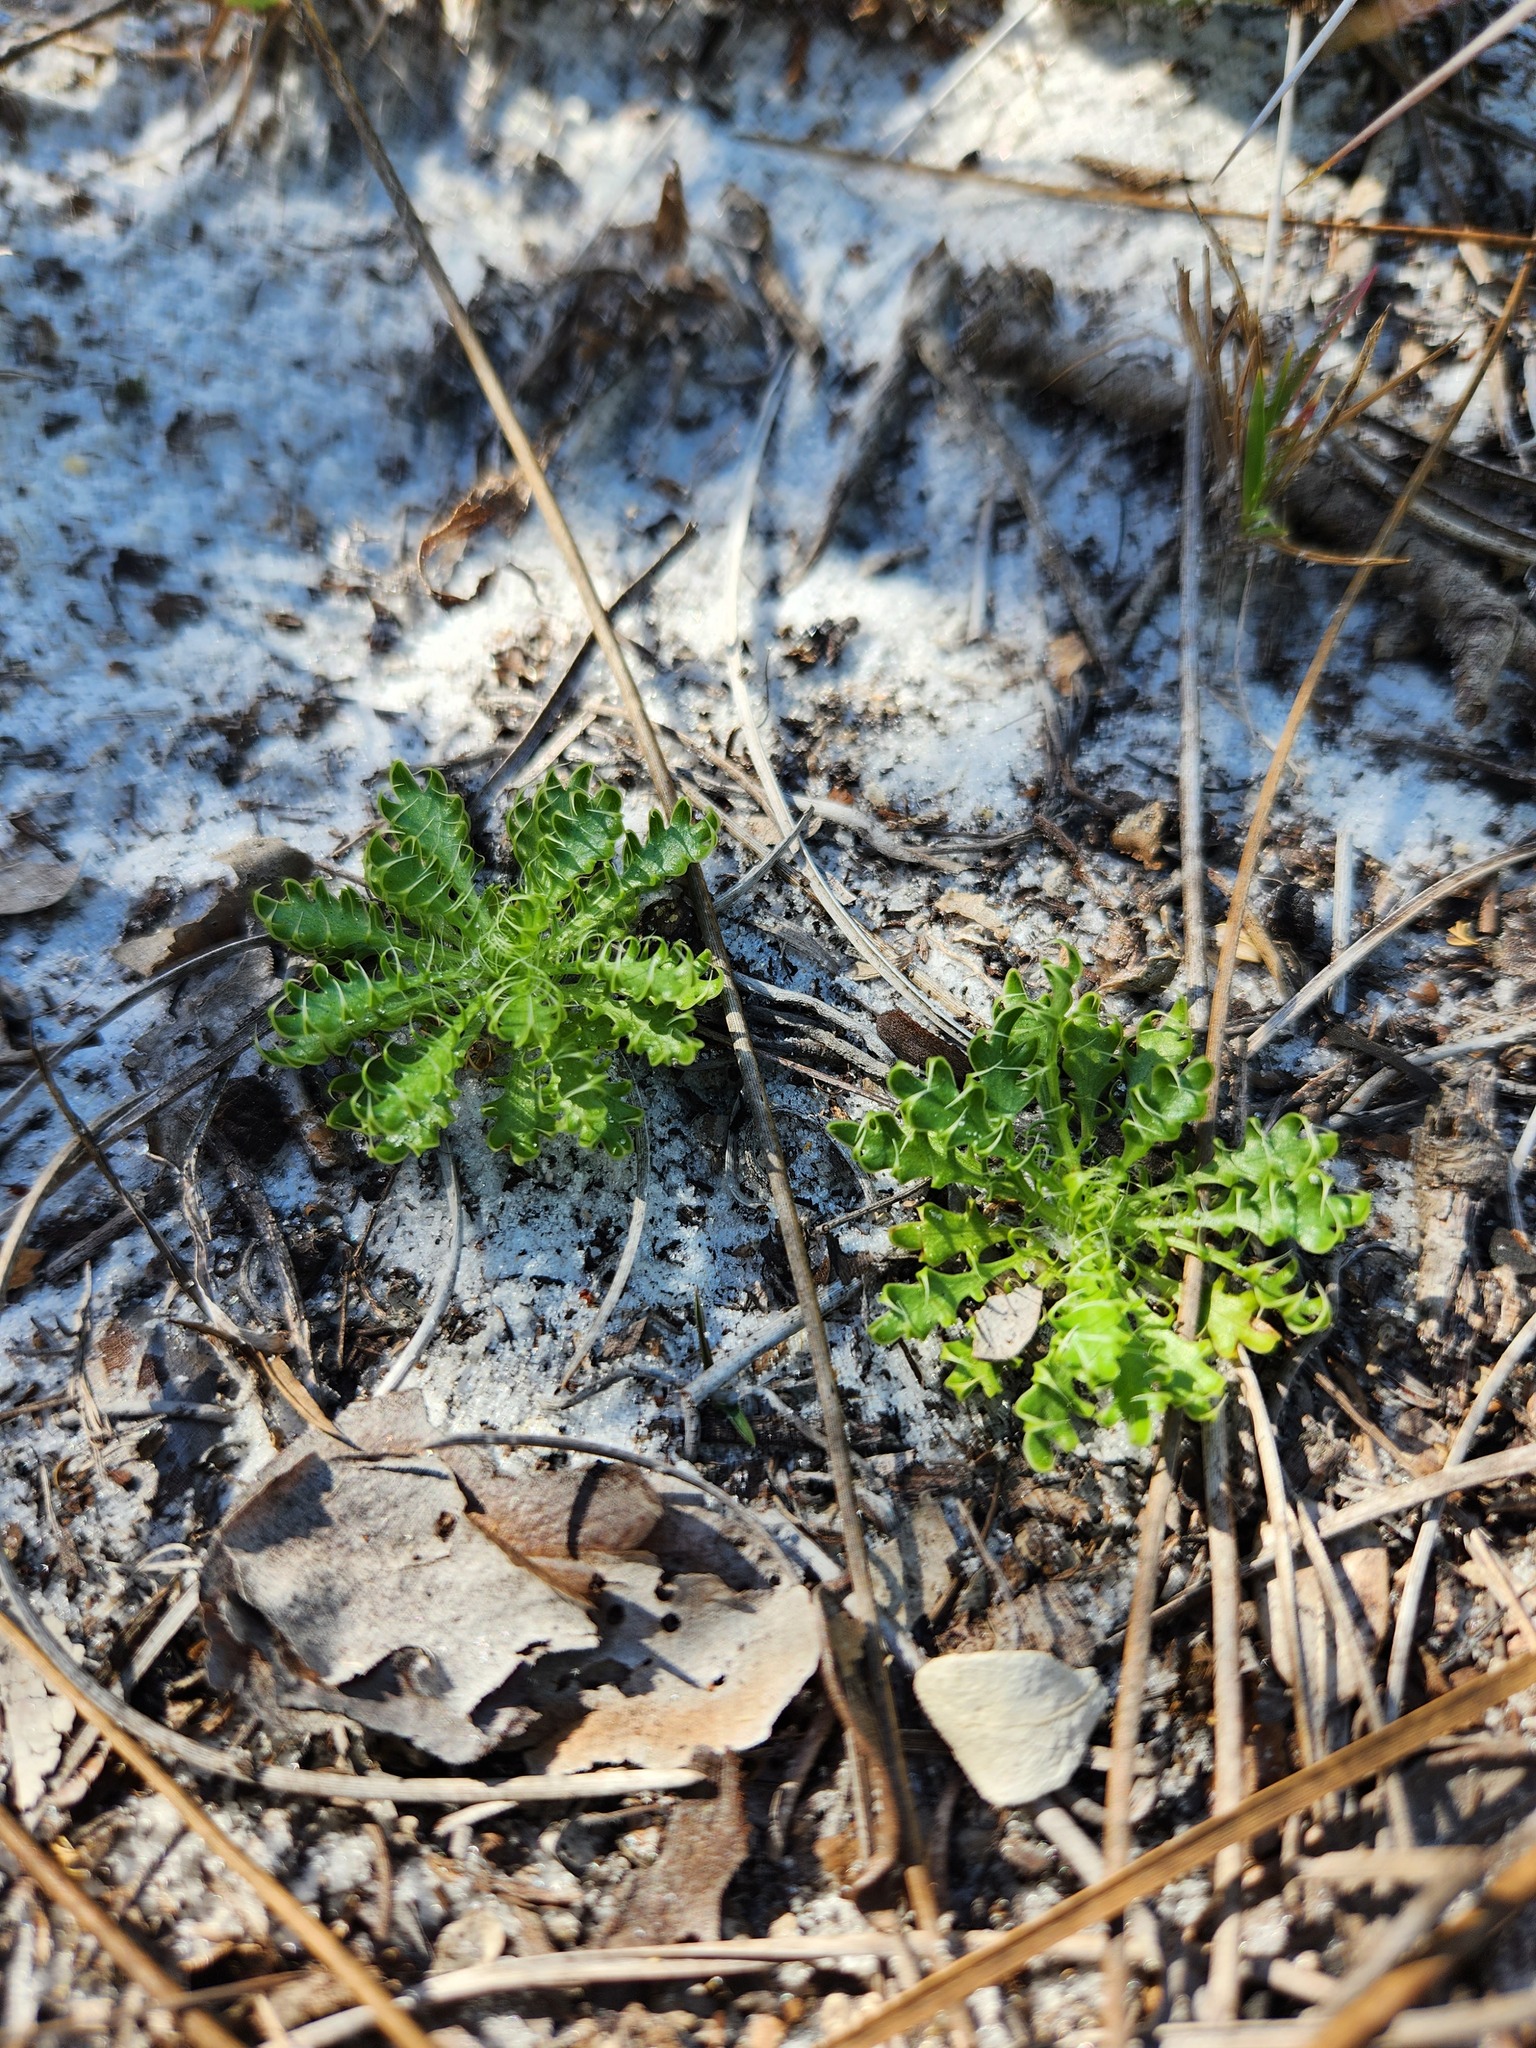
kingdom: Plantae
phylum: Tracheophyta
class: Magnoliopsida
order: Apiales
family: Apiaceae
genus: Eryngium
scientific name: Eryngium aromaticum
